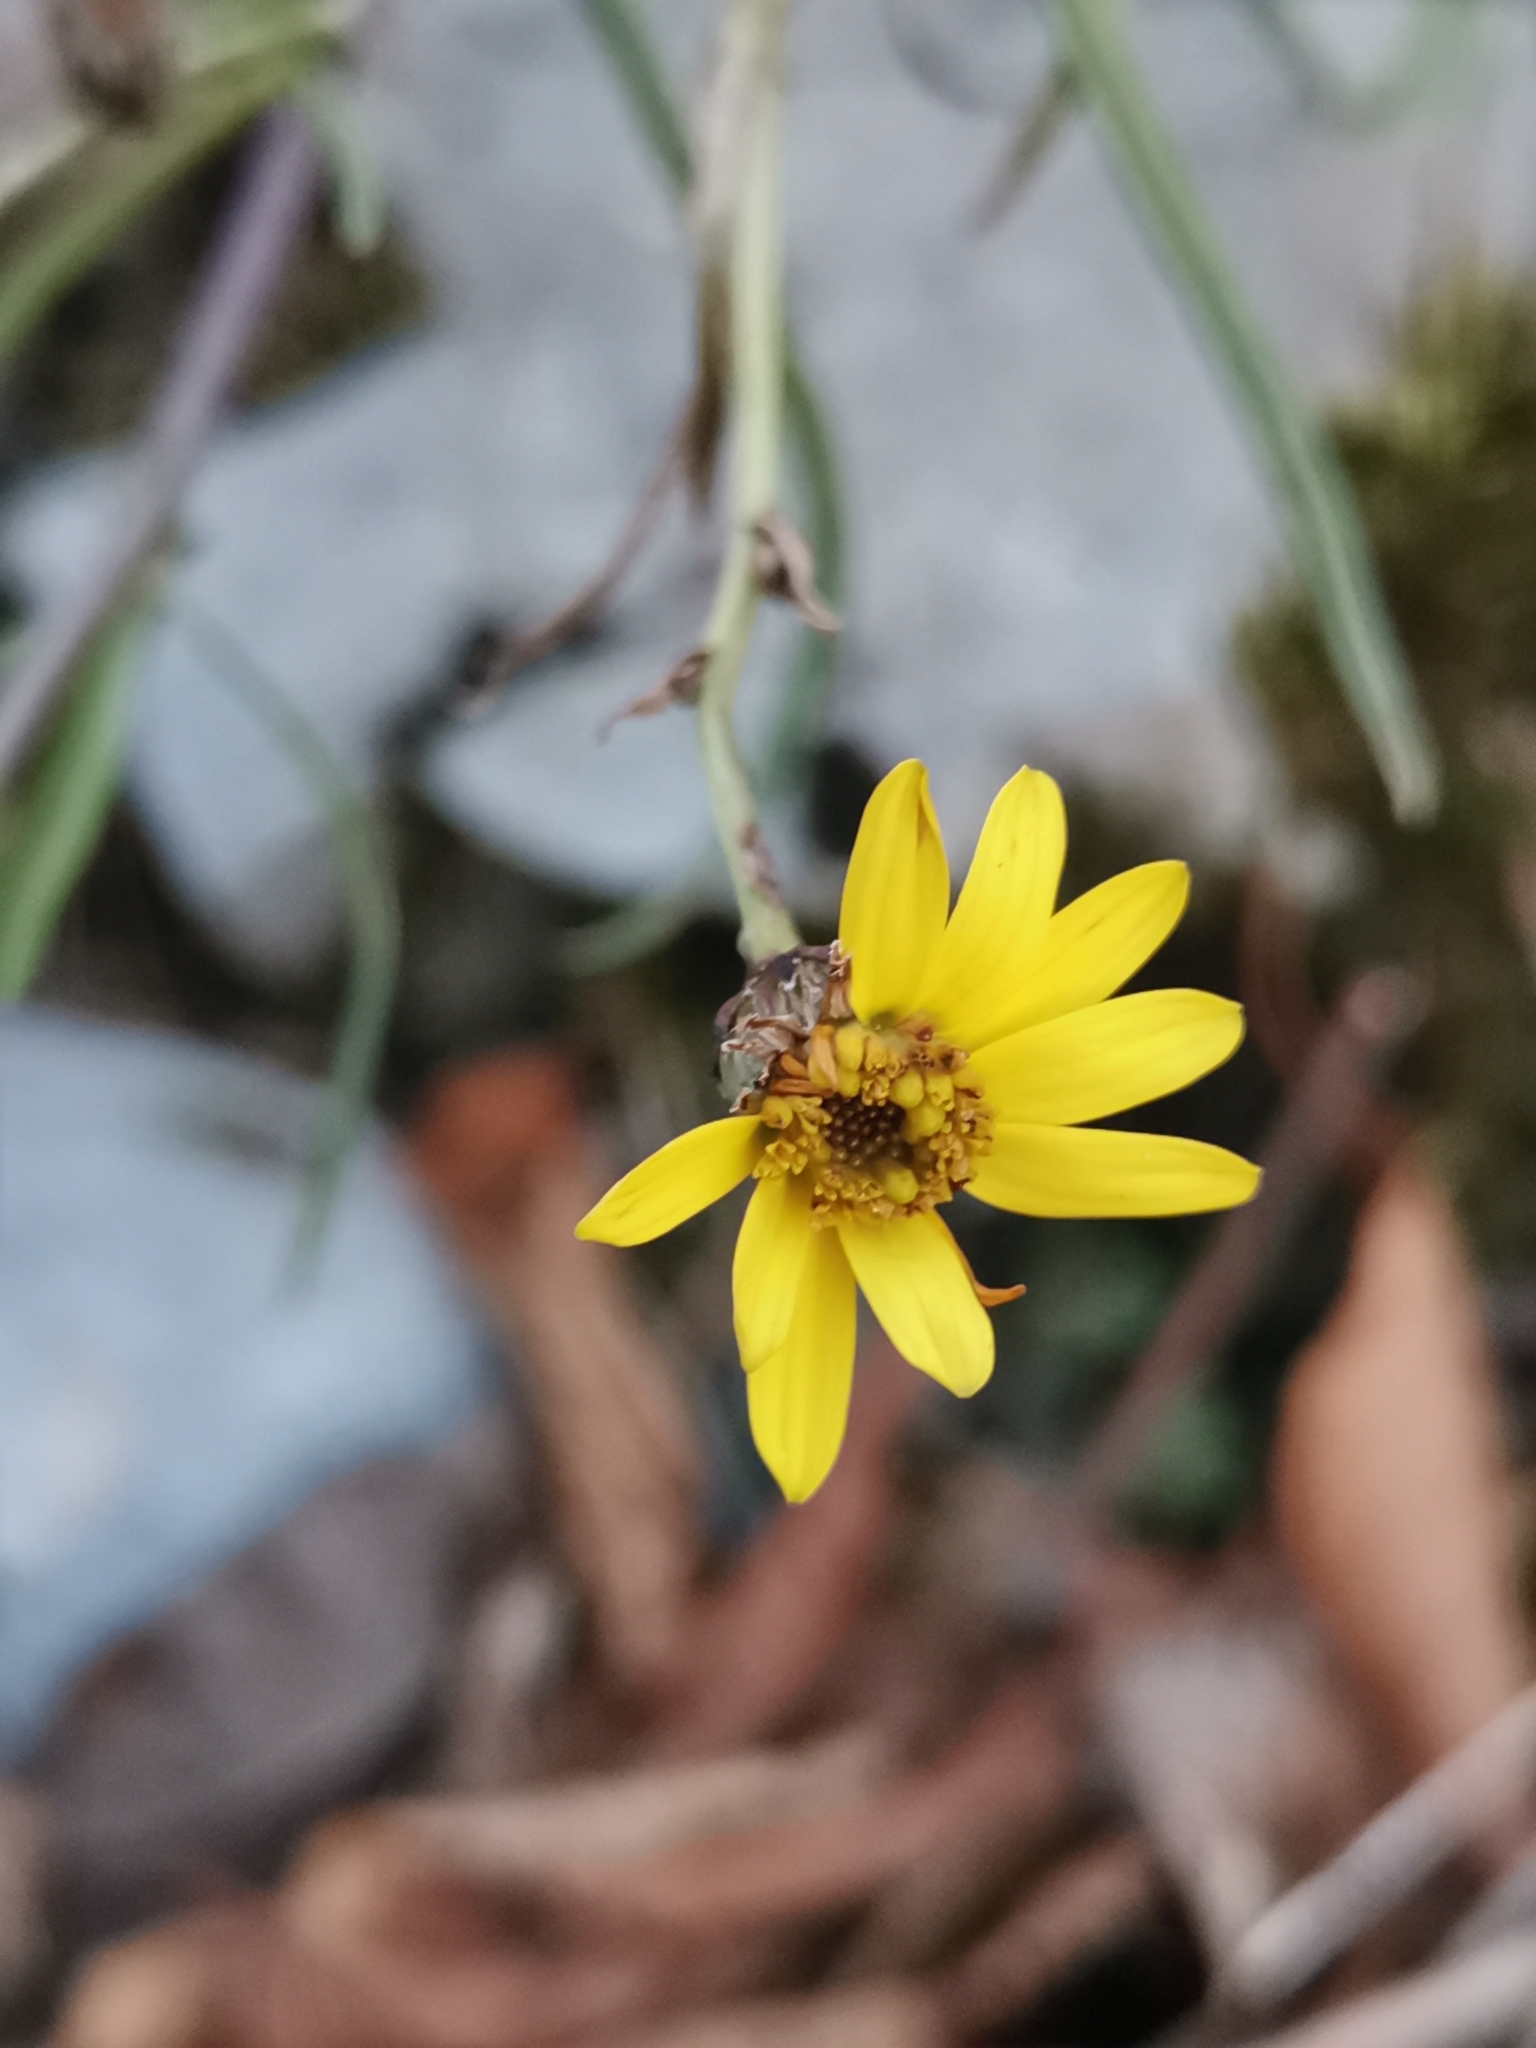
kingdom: Plantae
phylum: Tracheophyta
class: Magnoliopsida
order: Asterales
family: Asteraceae
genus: Senecio
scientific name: Senecio inaequidens
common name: Narrow-leaved ragwort
